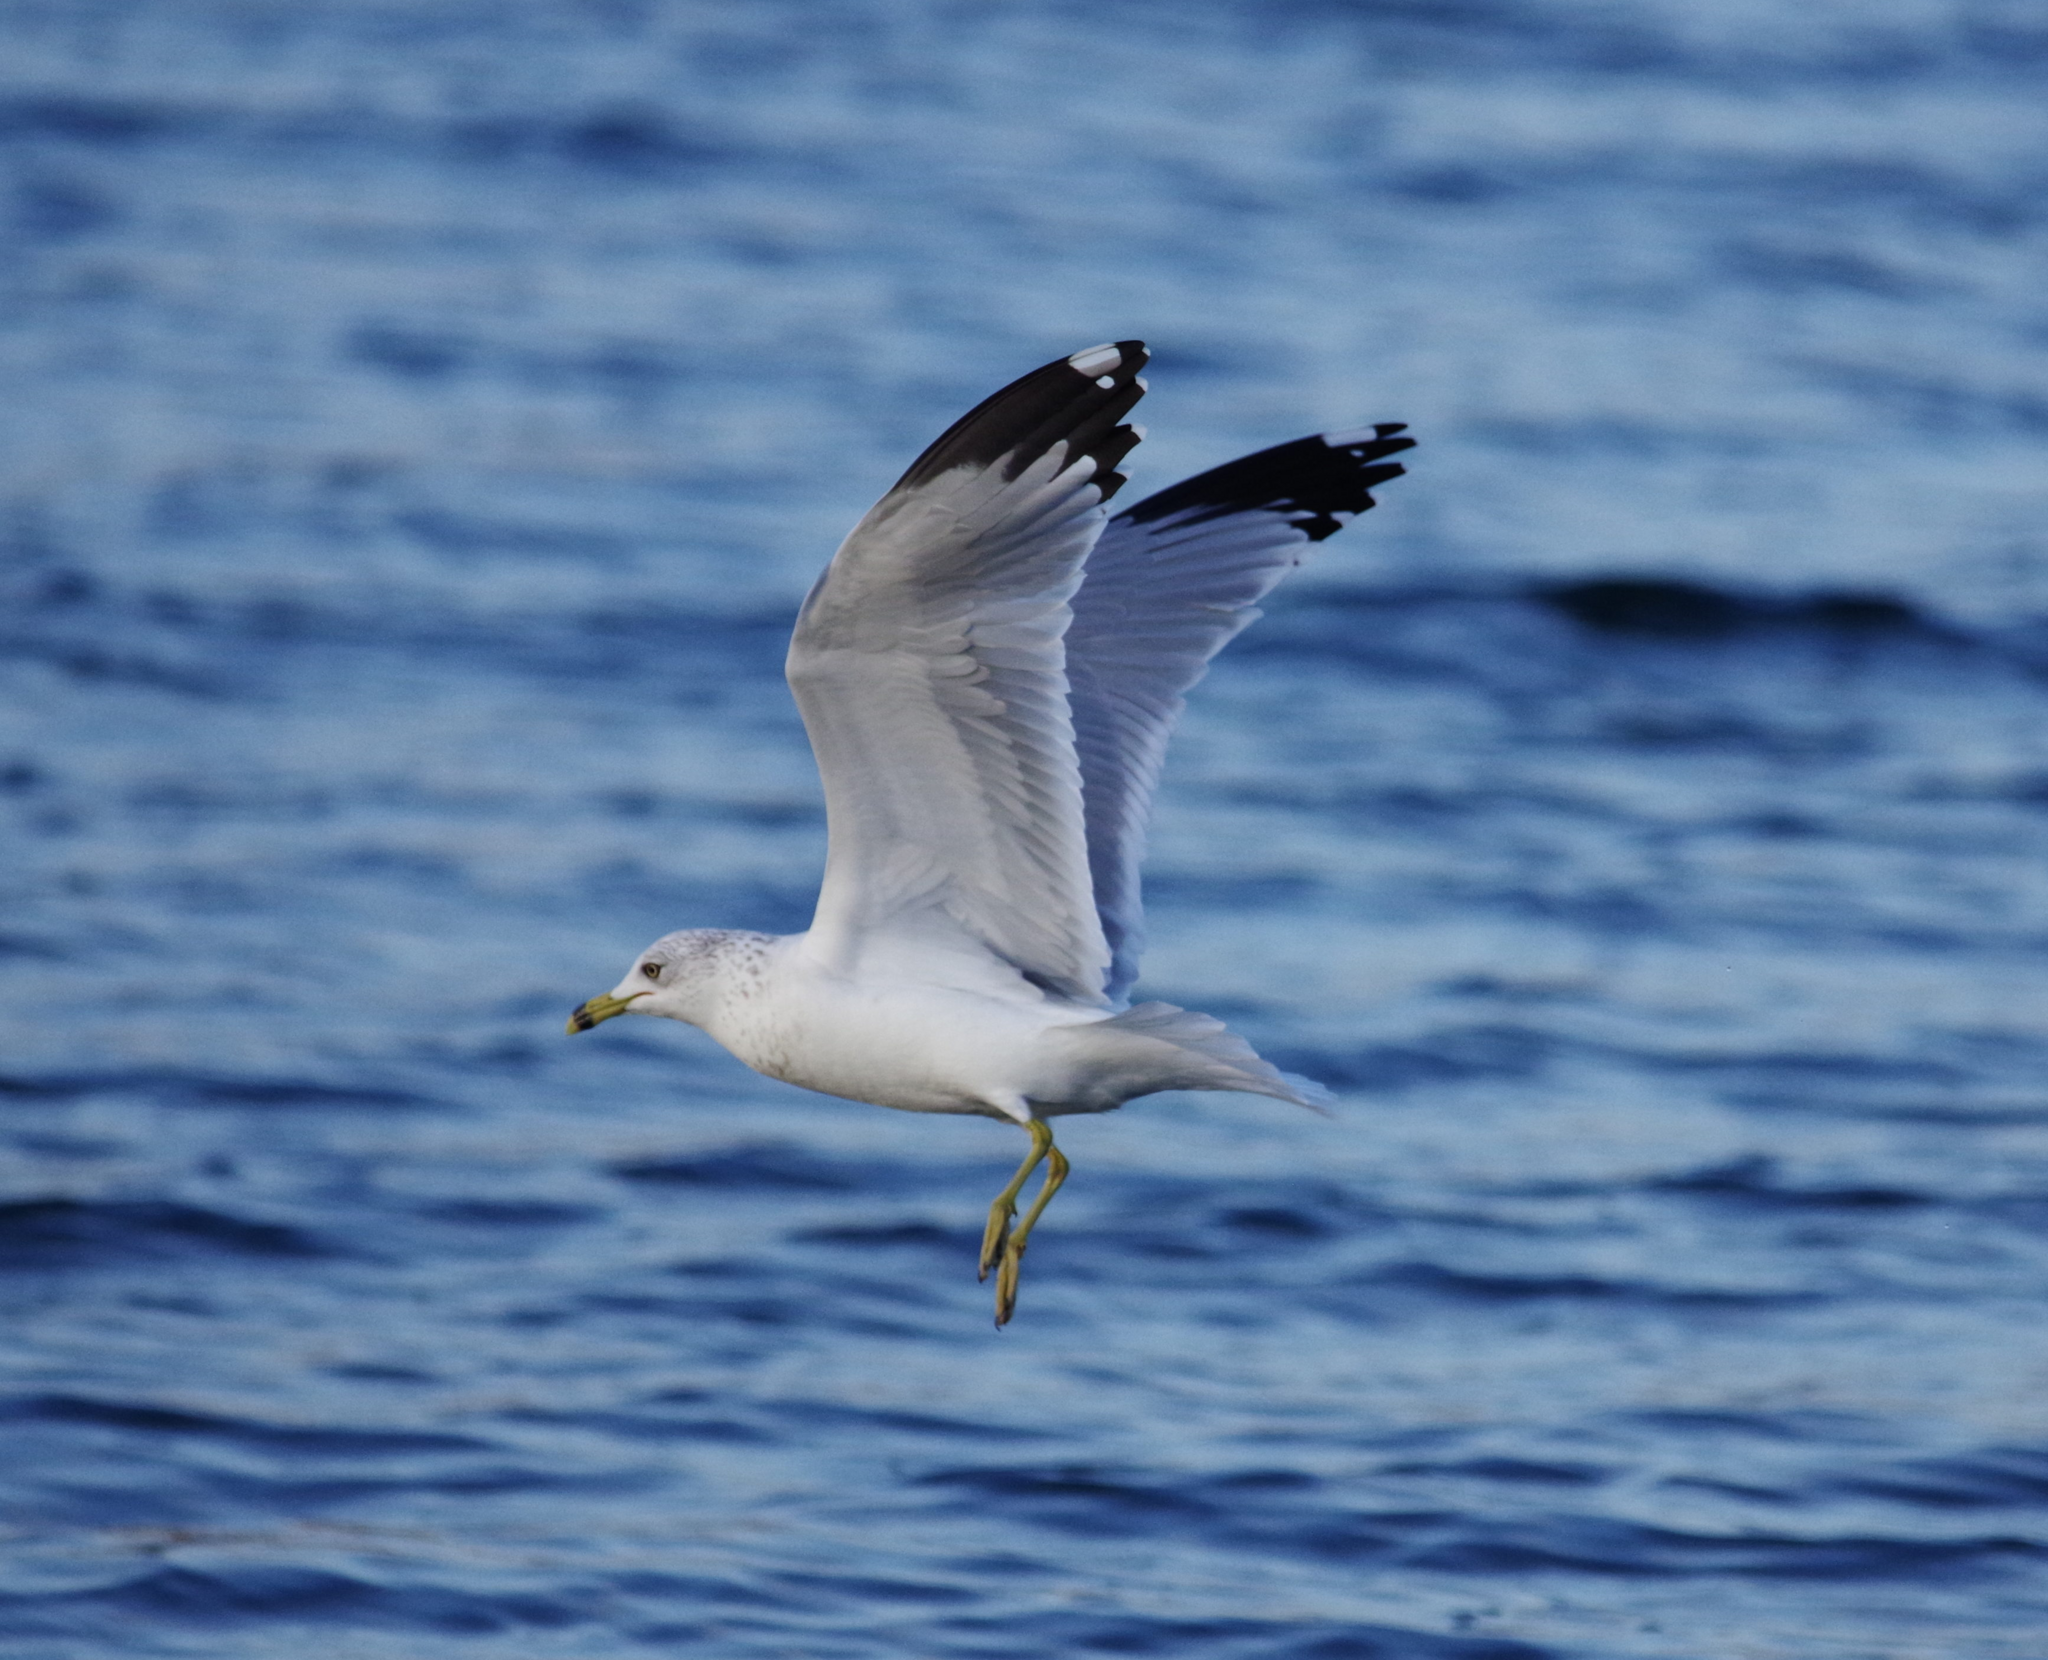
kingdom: Animalia
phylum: Chordata
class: Aves
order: Charadriiformes
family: Laridae
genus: Larus
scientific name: Larus delawarensis
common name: Ring-billed gull
